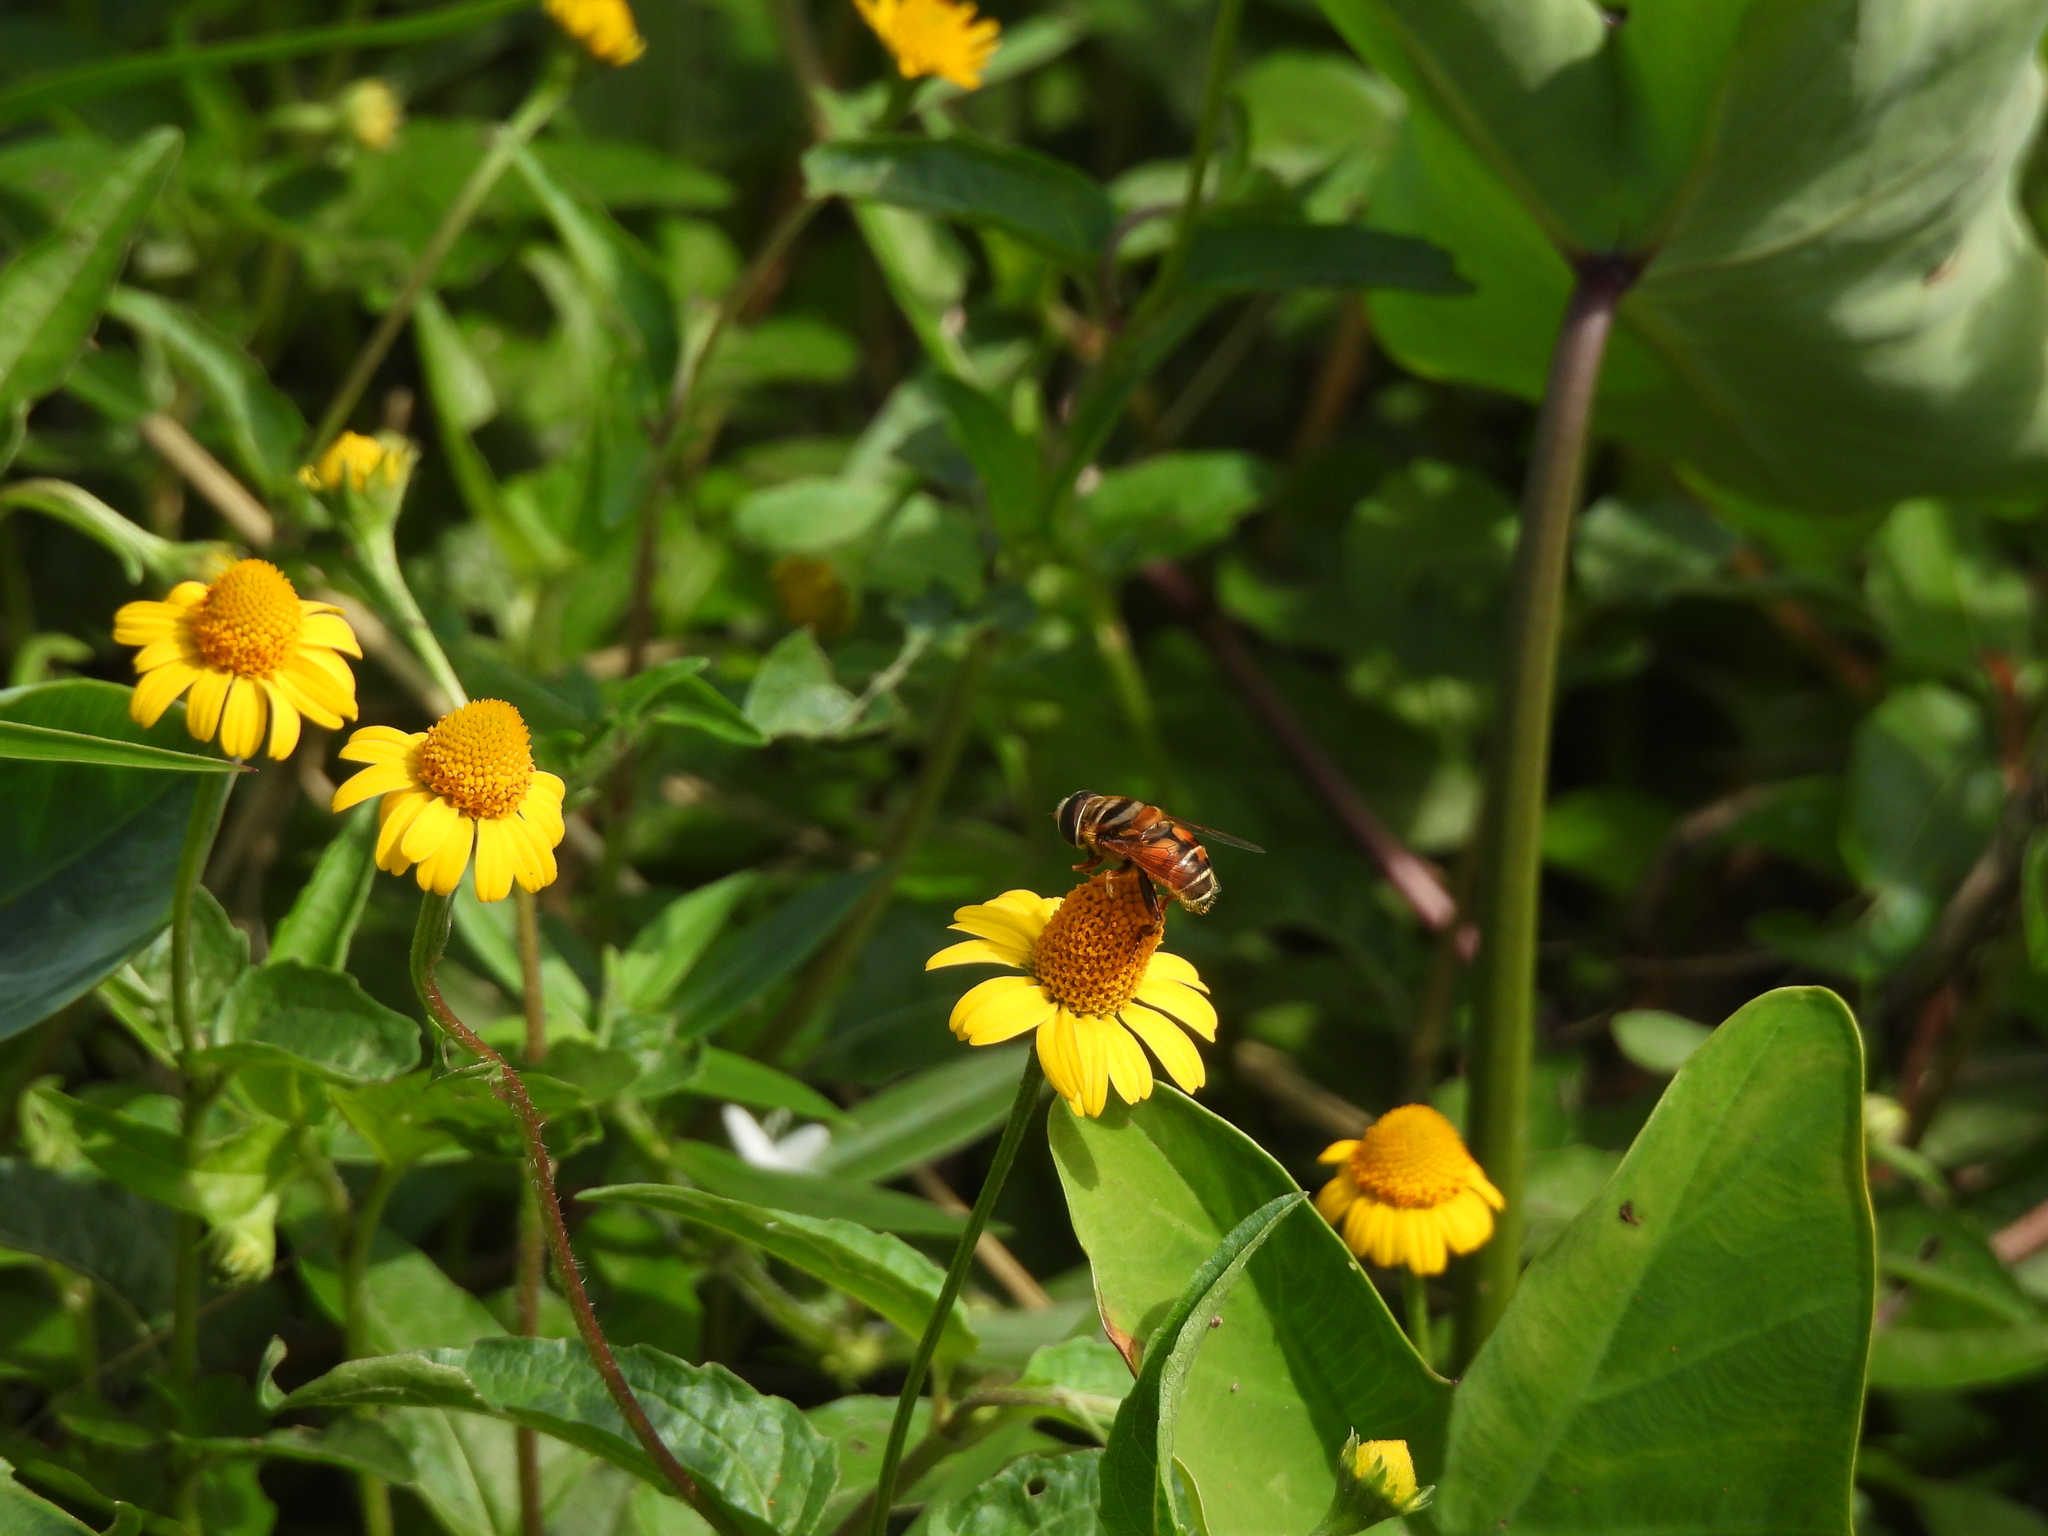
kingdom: Animalia
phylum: Arthropoda
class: Insecta
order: Diptera
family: Syrphidae
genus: Palpada
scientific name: Palpada vinetorum
